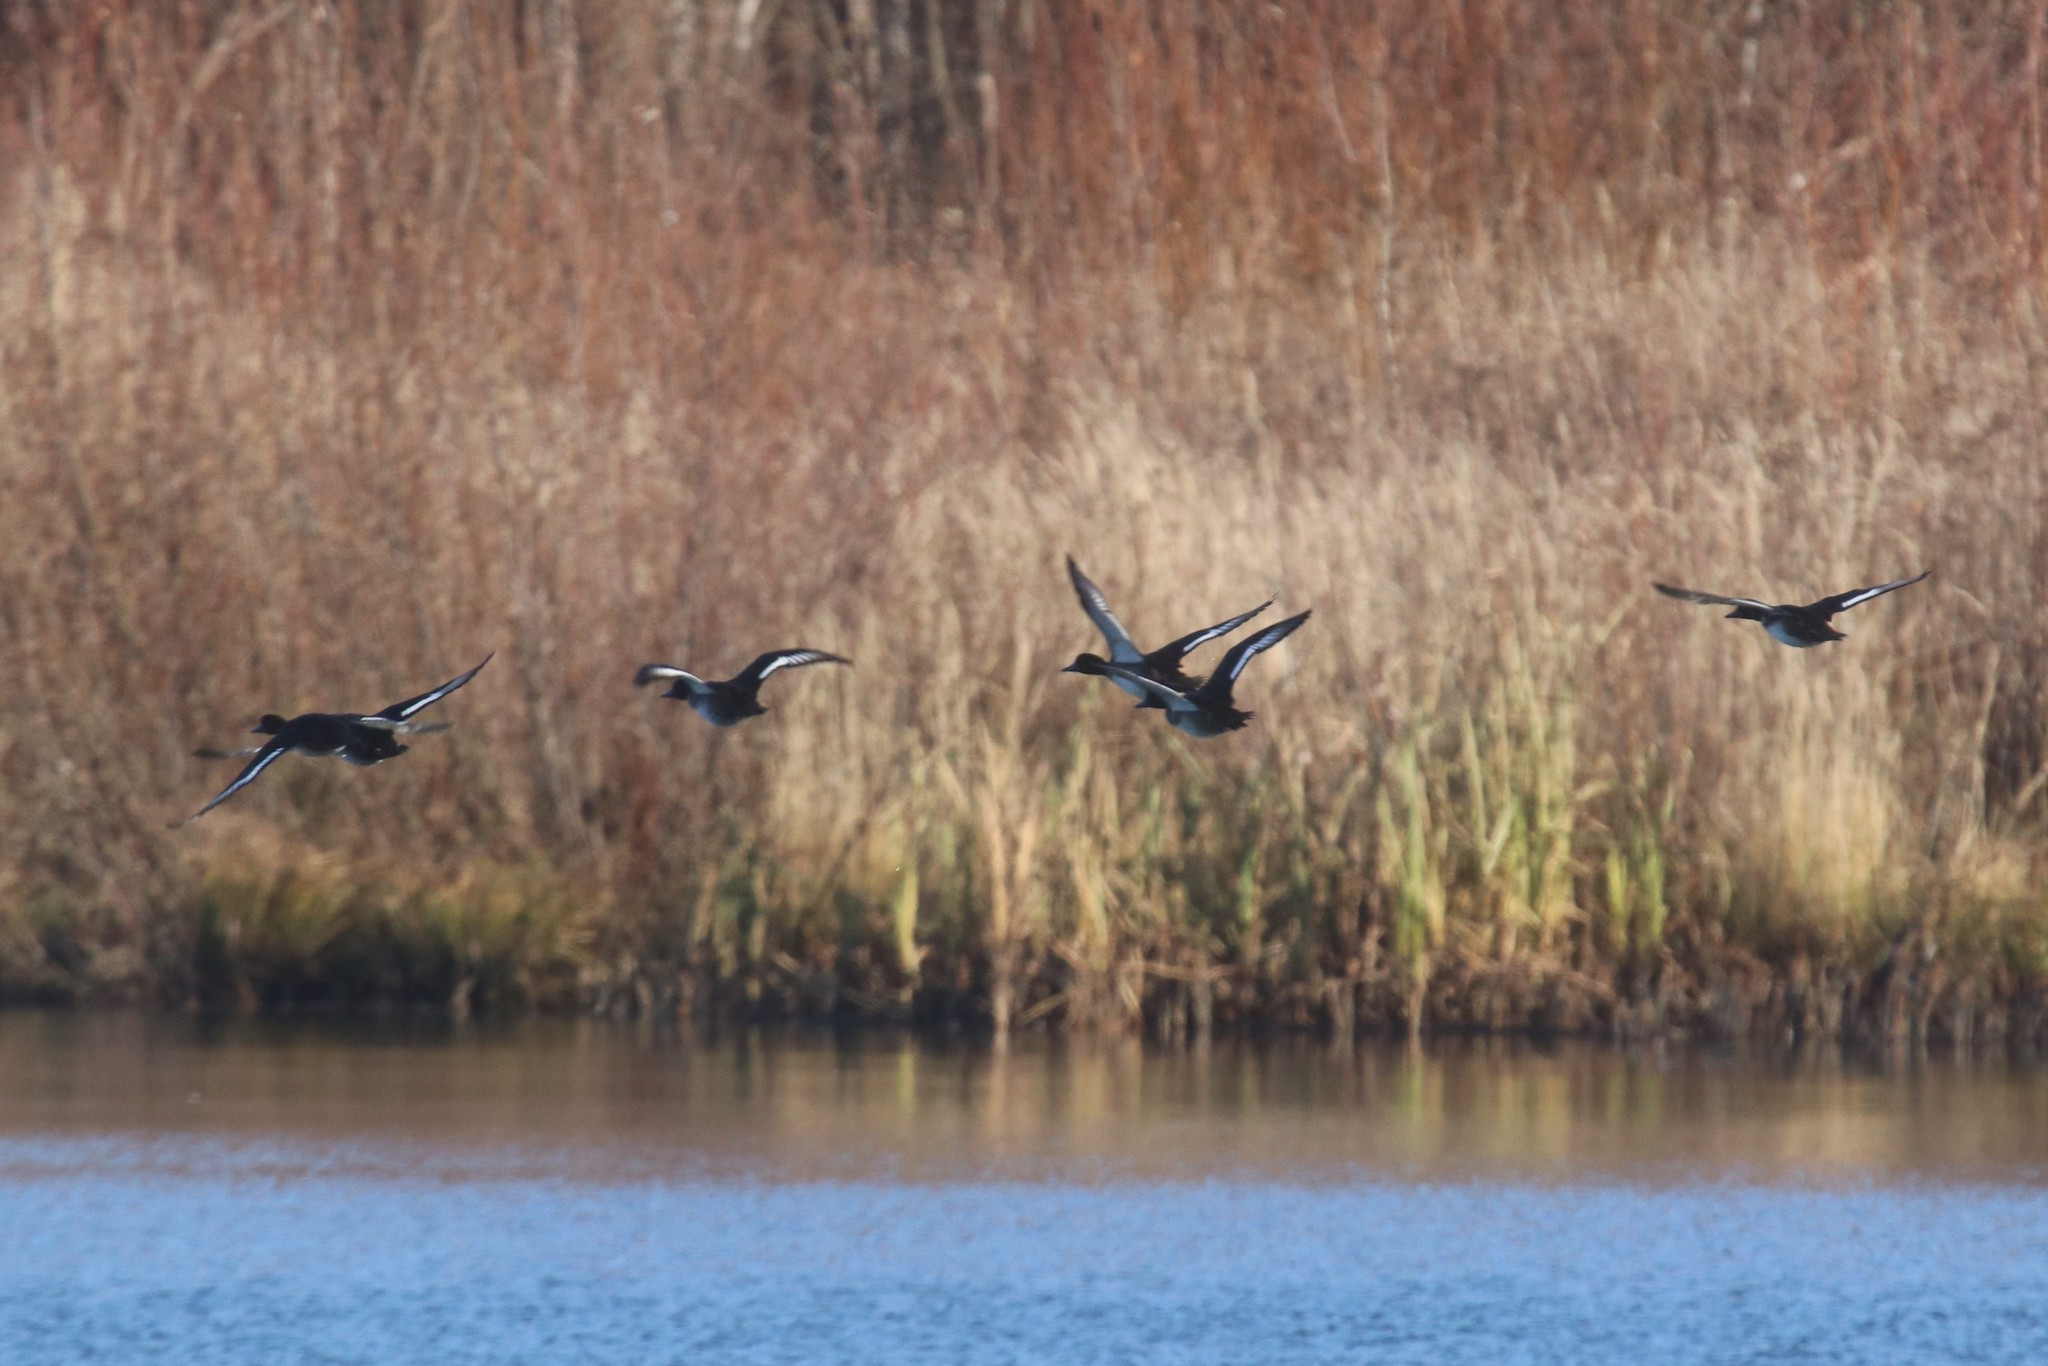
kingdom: Animalia
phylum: Chordata
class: Aves
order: Anseriformes
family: Anatidae
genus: Aythya
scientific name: Aythya fuligula
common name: Tufted duck
